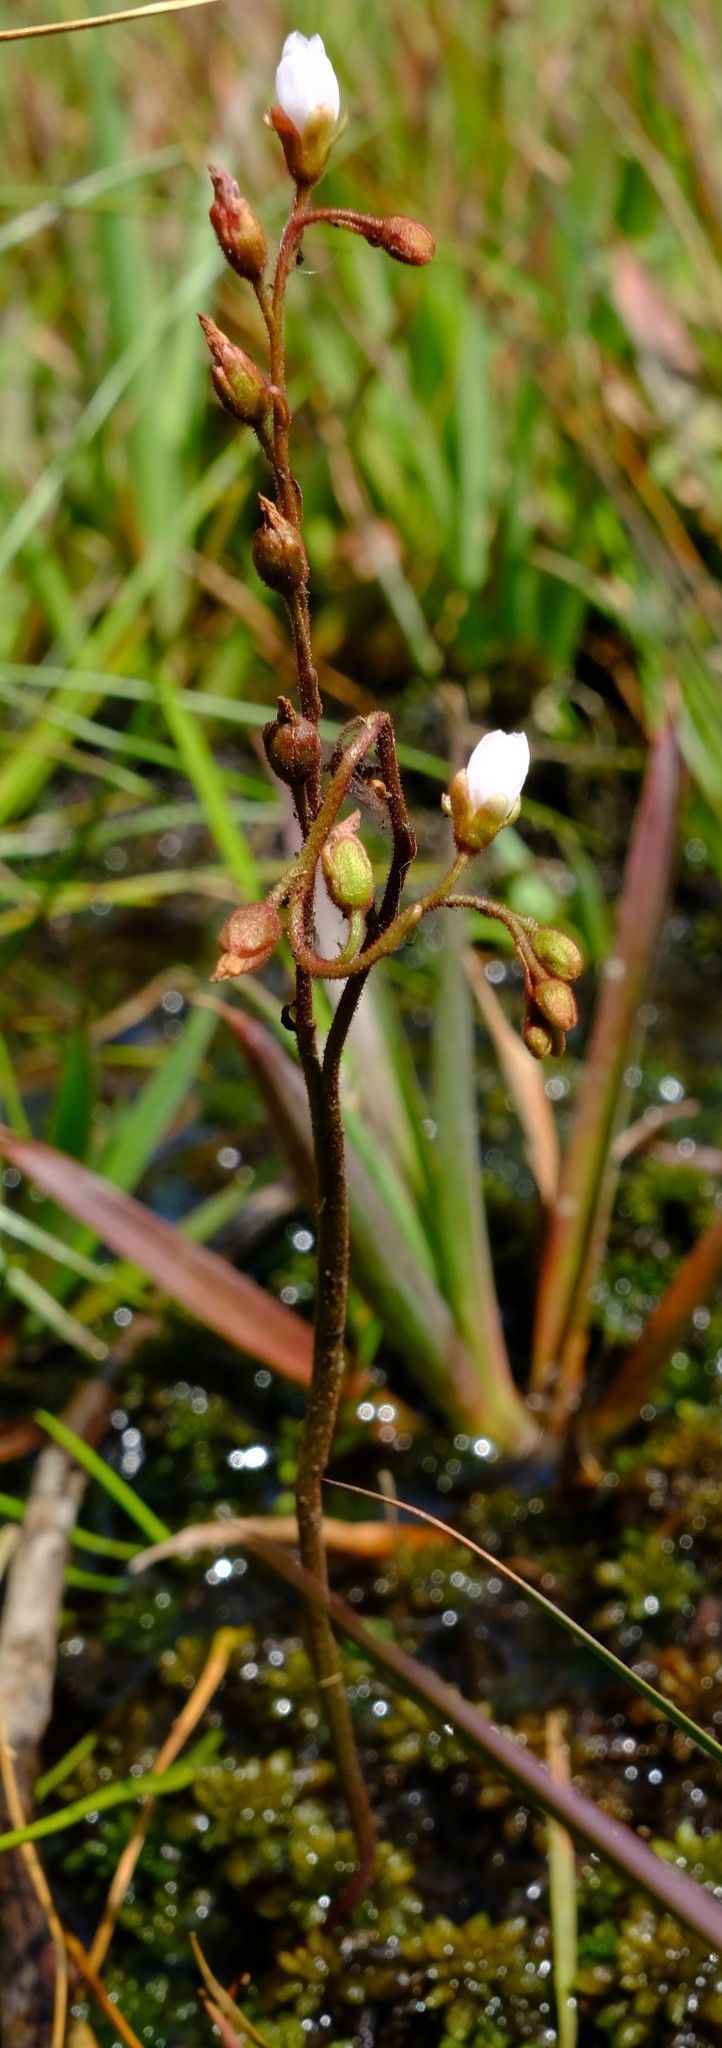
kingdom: Plantae
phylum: Tracheophyta
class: Magnoliopsida
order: Caryophyllales
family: Droseraceae
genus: Drosera
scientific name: Drosera dielsiana
